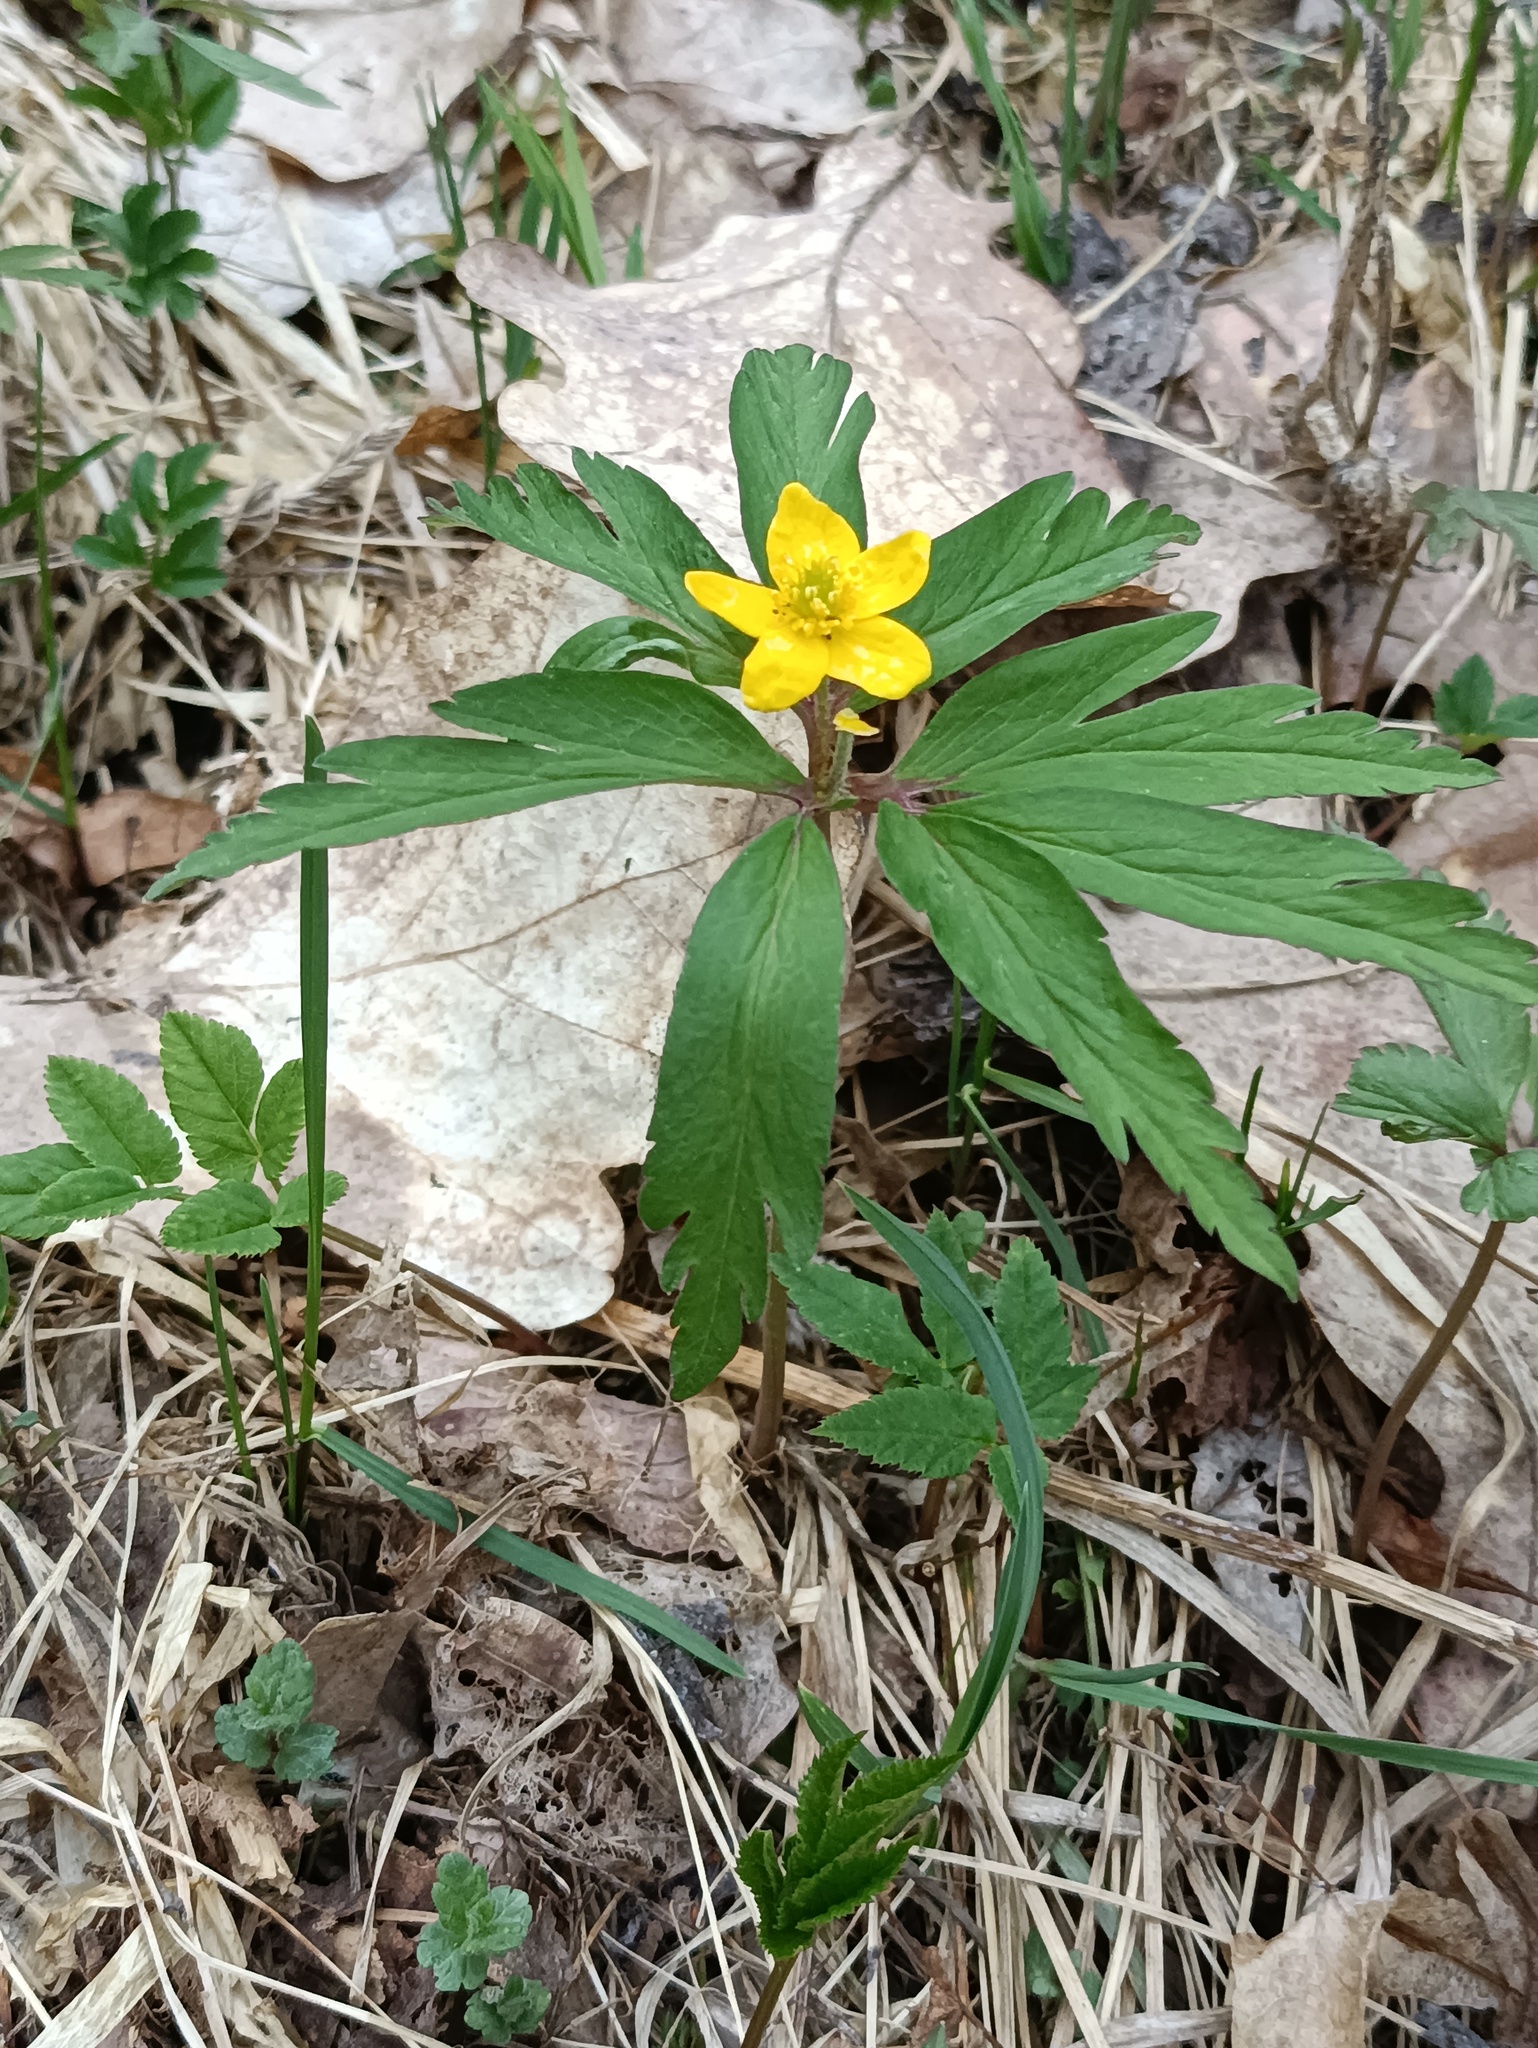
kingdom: Plantae
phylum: Tracheophyta
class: Magnoliopsida
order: Ranunculales
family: Ranunculaceae
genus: Anemone
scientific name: Anemone ranunculoides
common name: Yellow anemone
